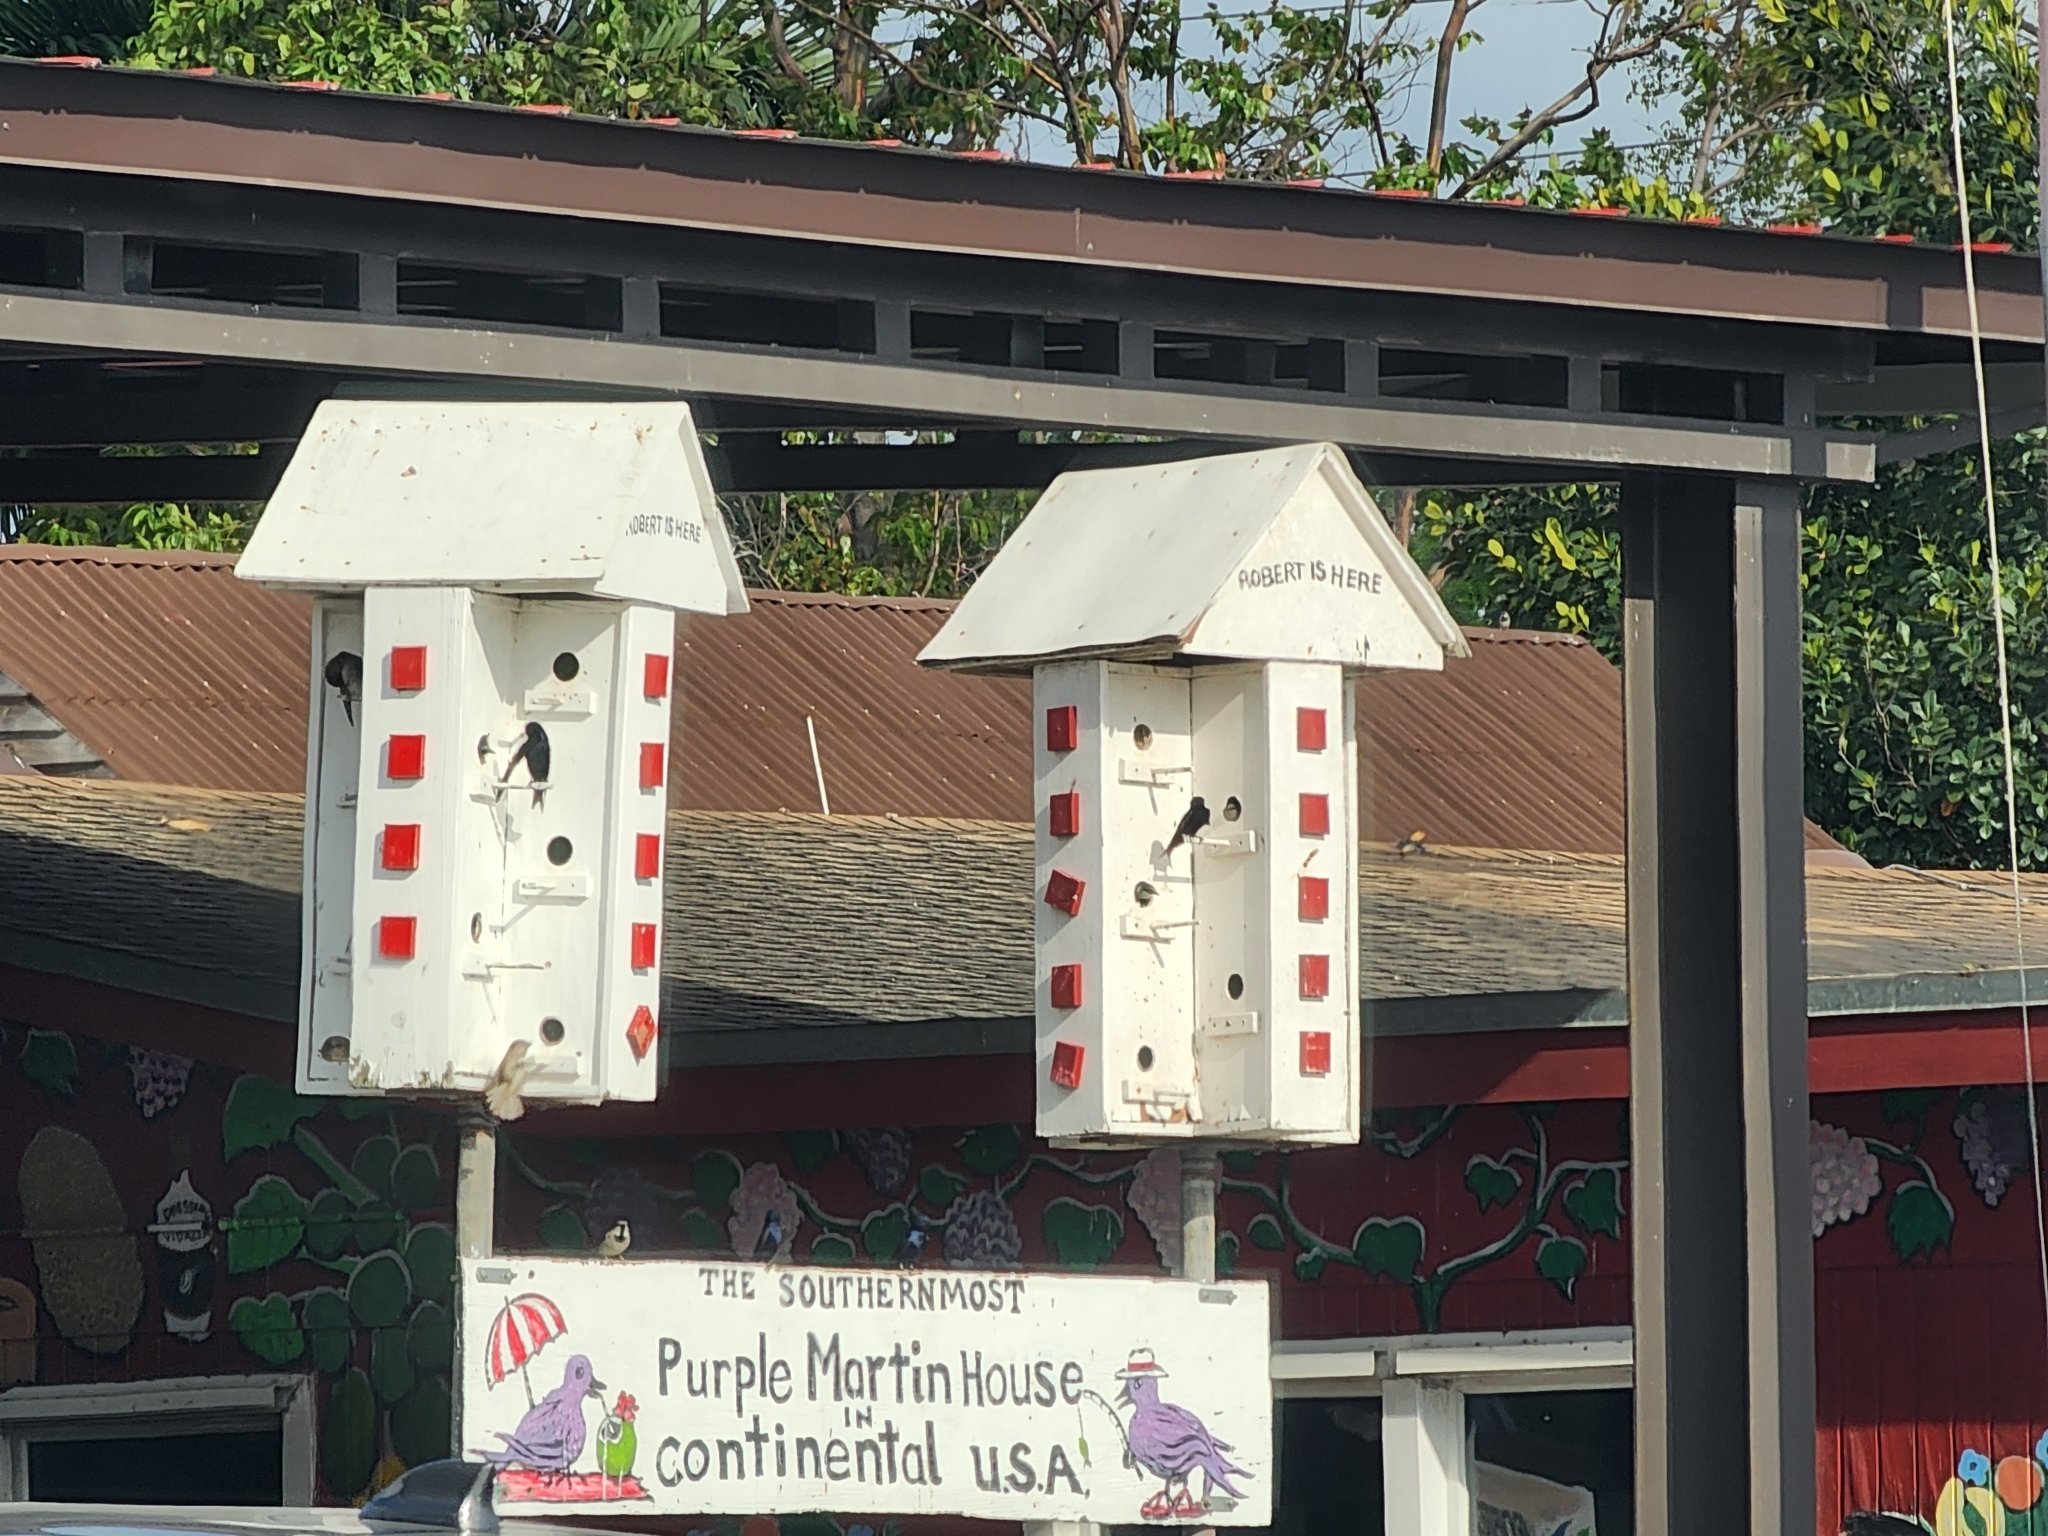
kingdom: Animalia
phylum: Chordata
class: Aves
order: Passeriformes
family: Hirundinidae
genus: Progne
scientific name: Progne subis
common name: Purple martin
